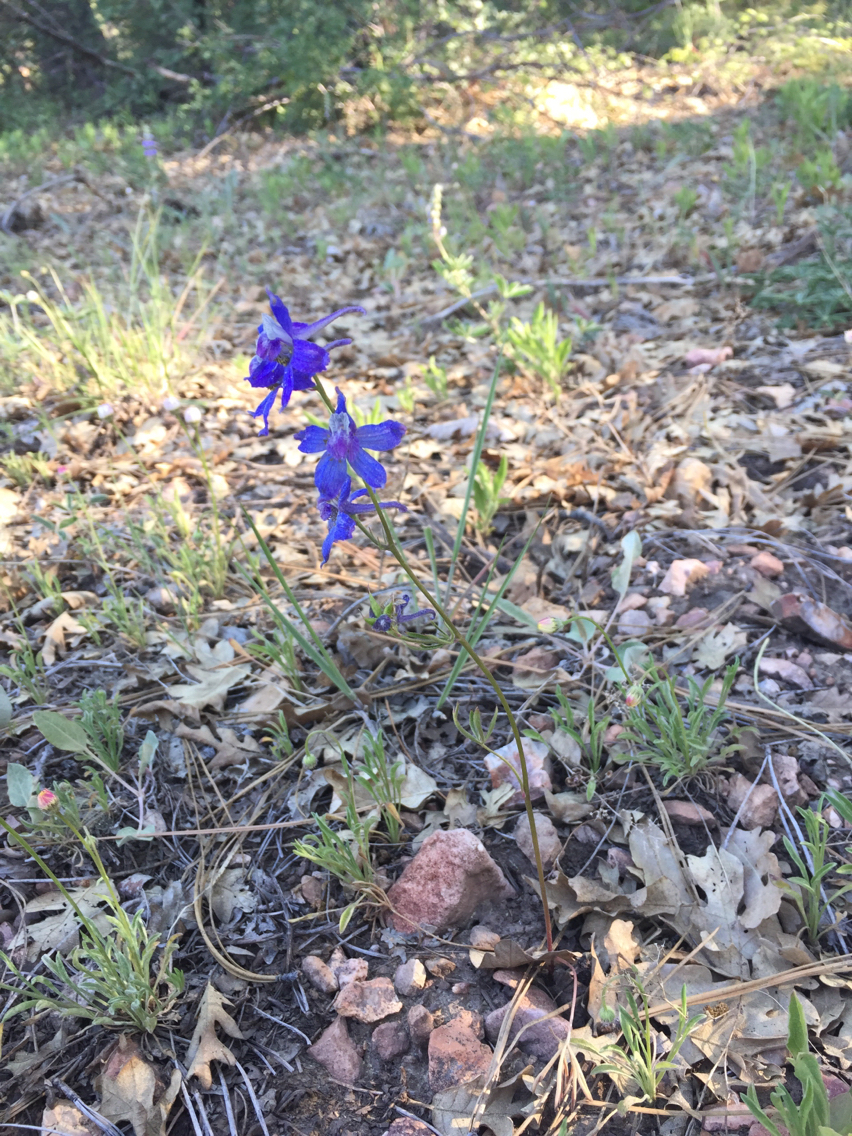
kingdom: Plantae
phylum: Tracheophyta
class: Magnoliopsida
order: Ranunculales
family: Ranunculaceae
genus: Delphinium
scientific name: Delphinium nuttallianum
